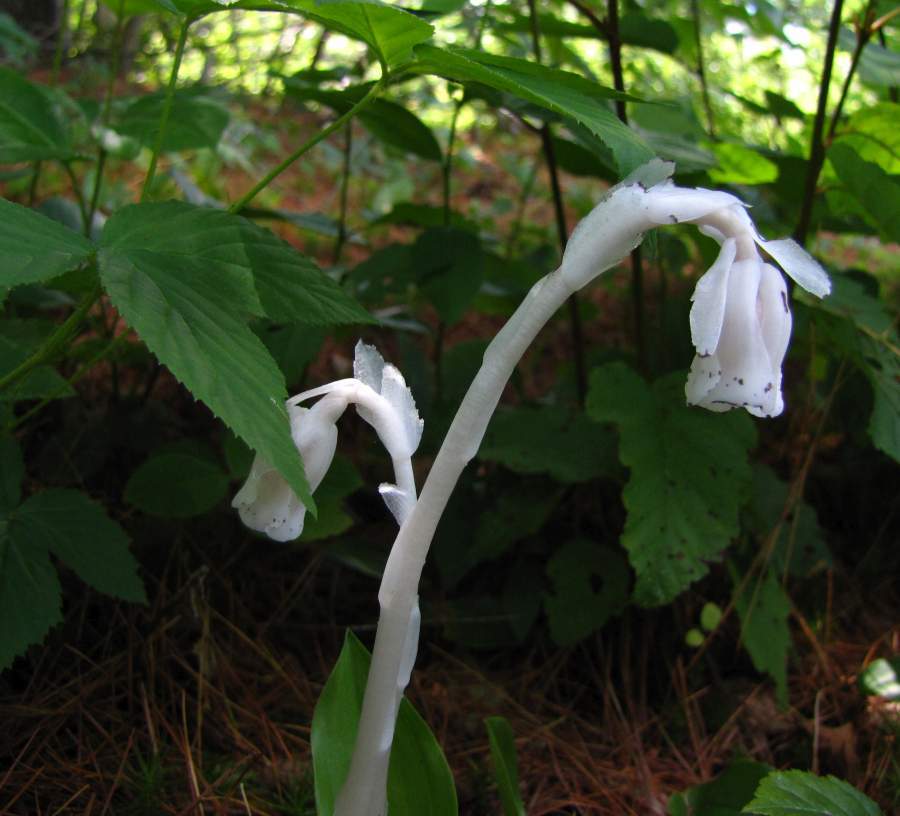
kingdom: Plantae
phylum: Tracheophyta
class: Magnoliopsida
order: Ericales
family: Ericaceae
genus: Monotropa
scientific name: Monotropa uniflora
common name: Convulsion root
